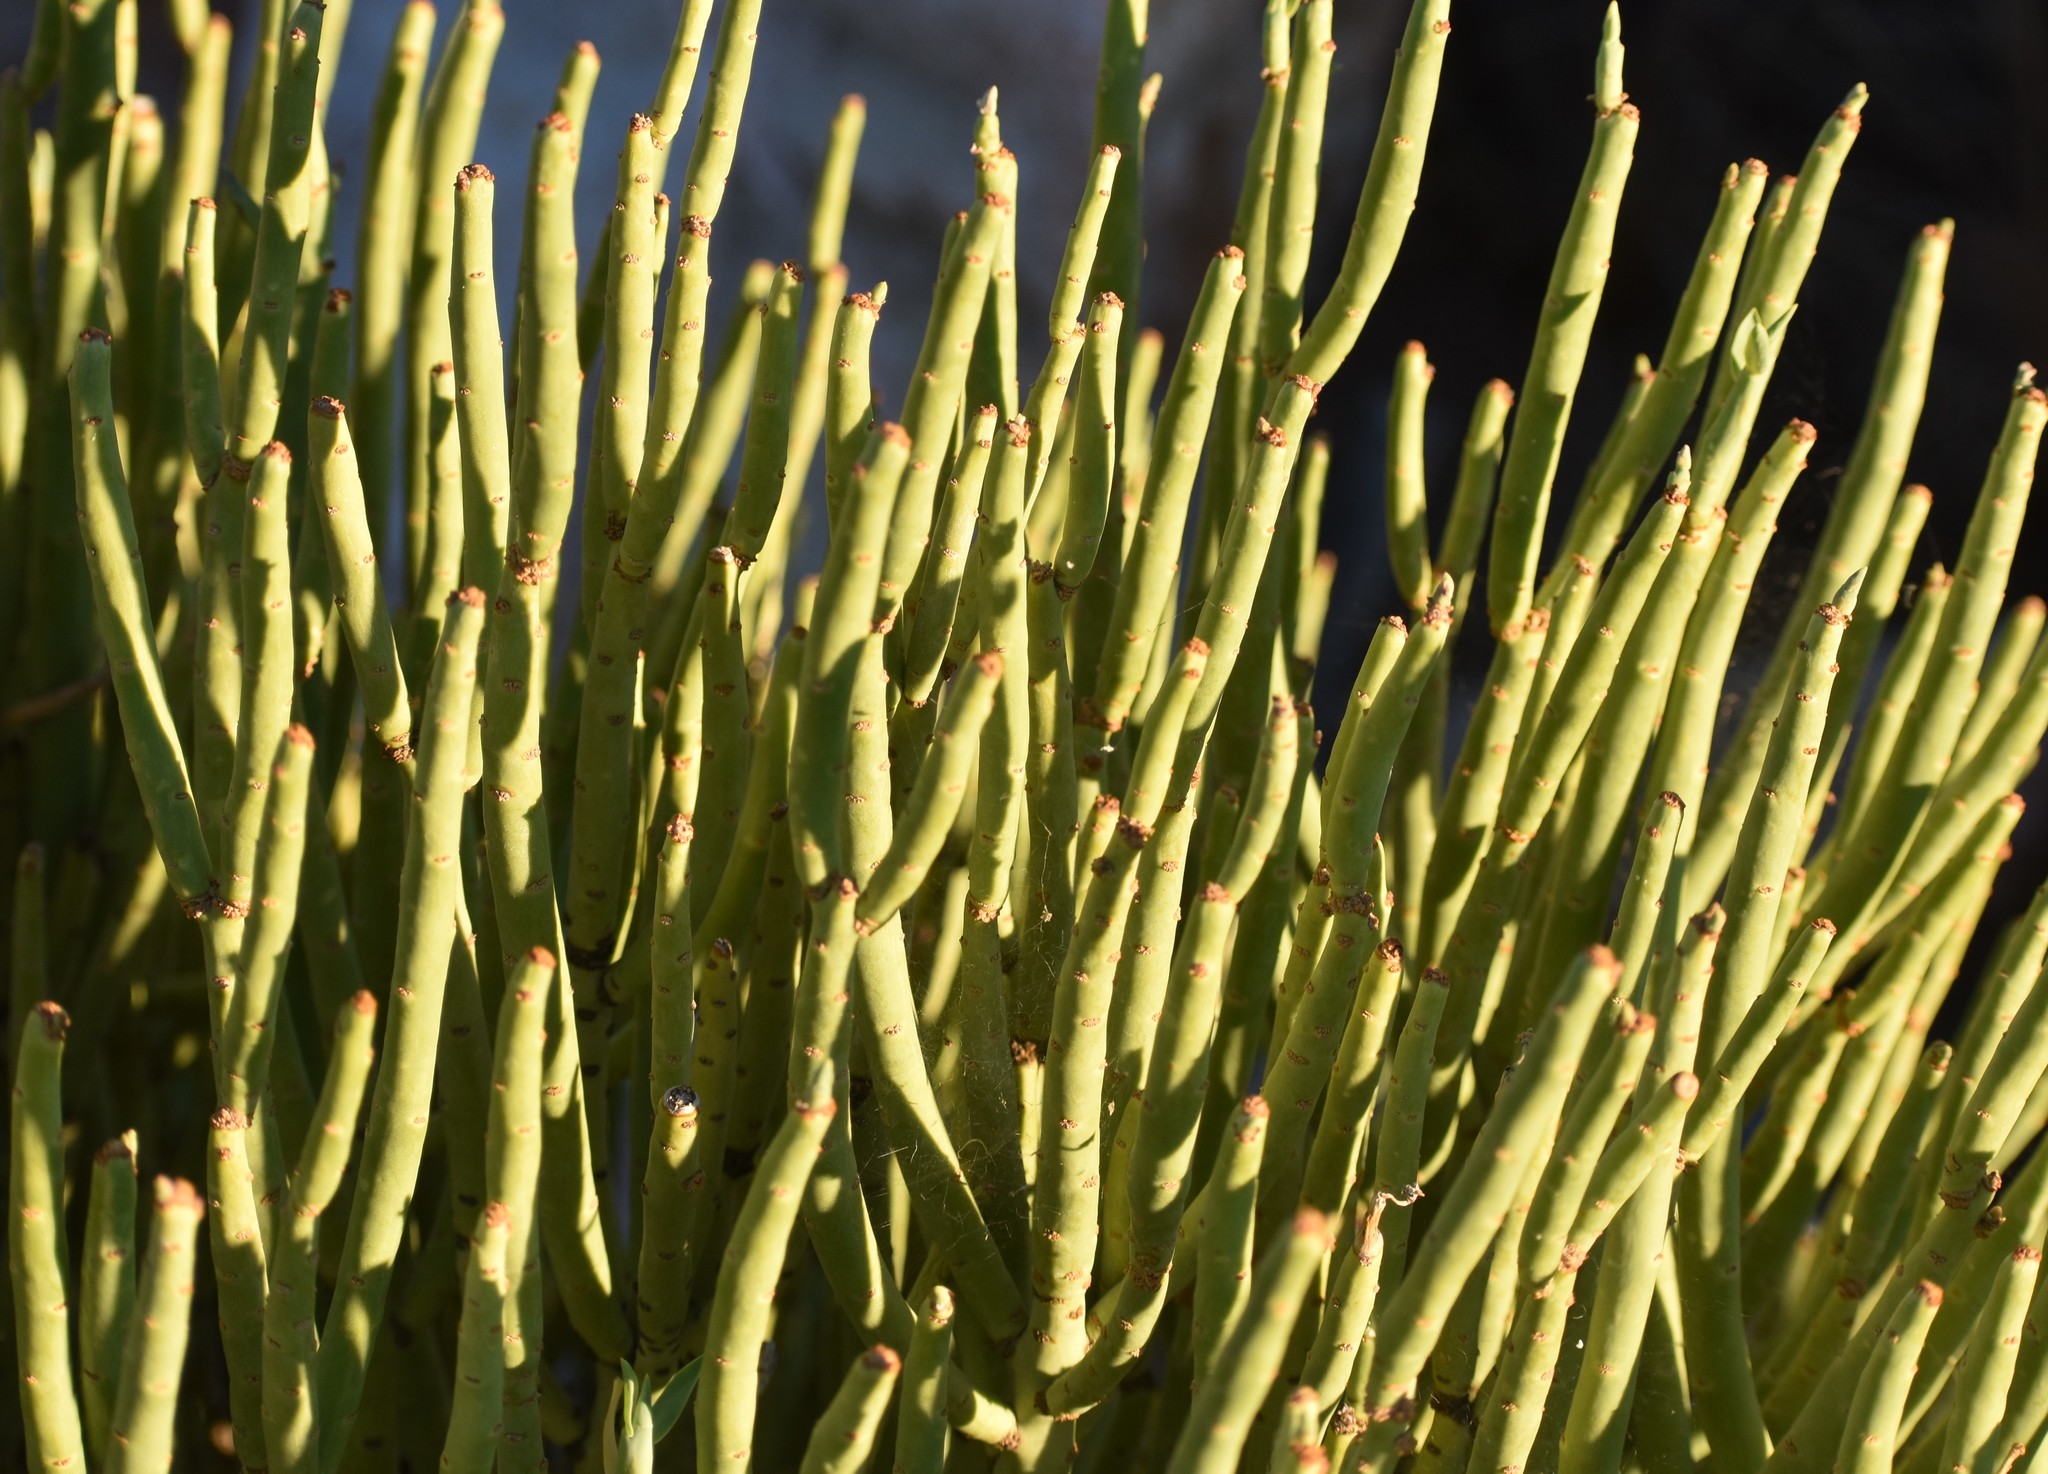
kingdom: Plantae
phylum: Tracheophyta
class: Magnoliopsida
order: Malpighiales
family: Euphorbiaceae
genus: Euphorbia
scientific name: Euphorbia mauritanica
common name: Jackal's-food
